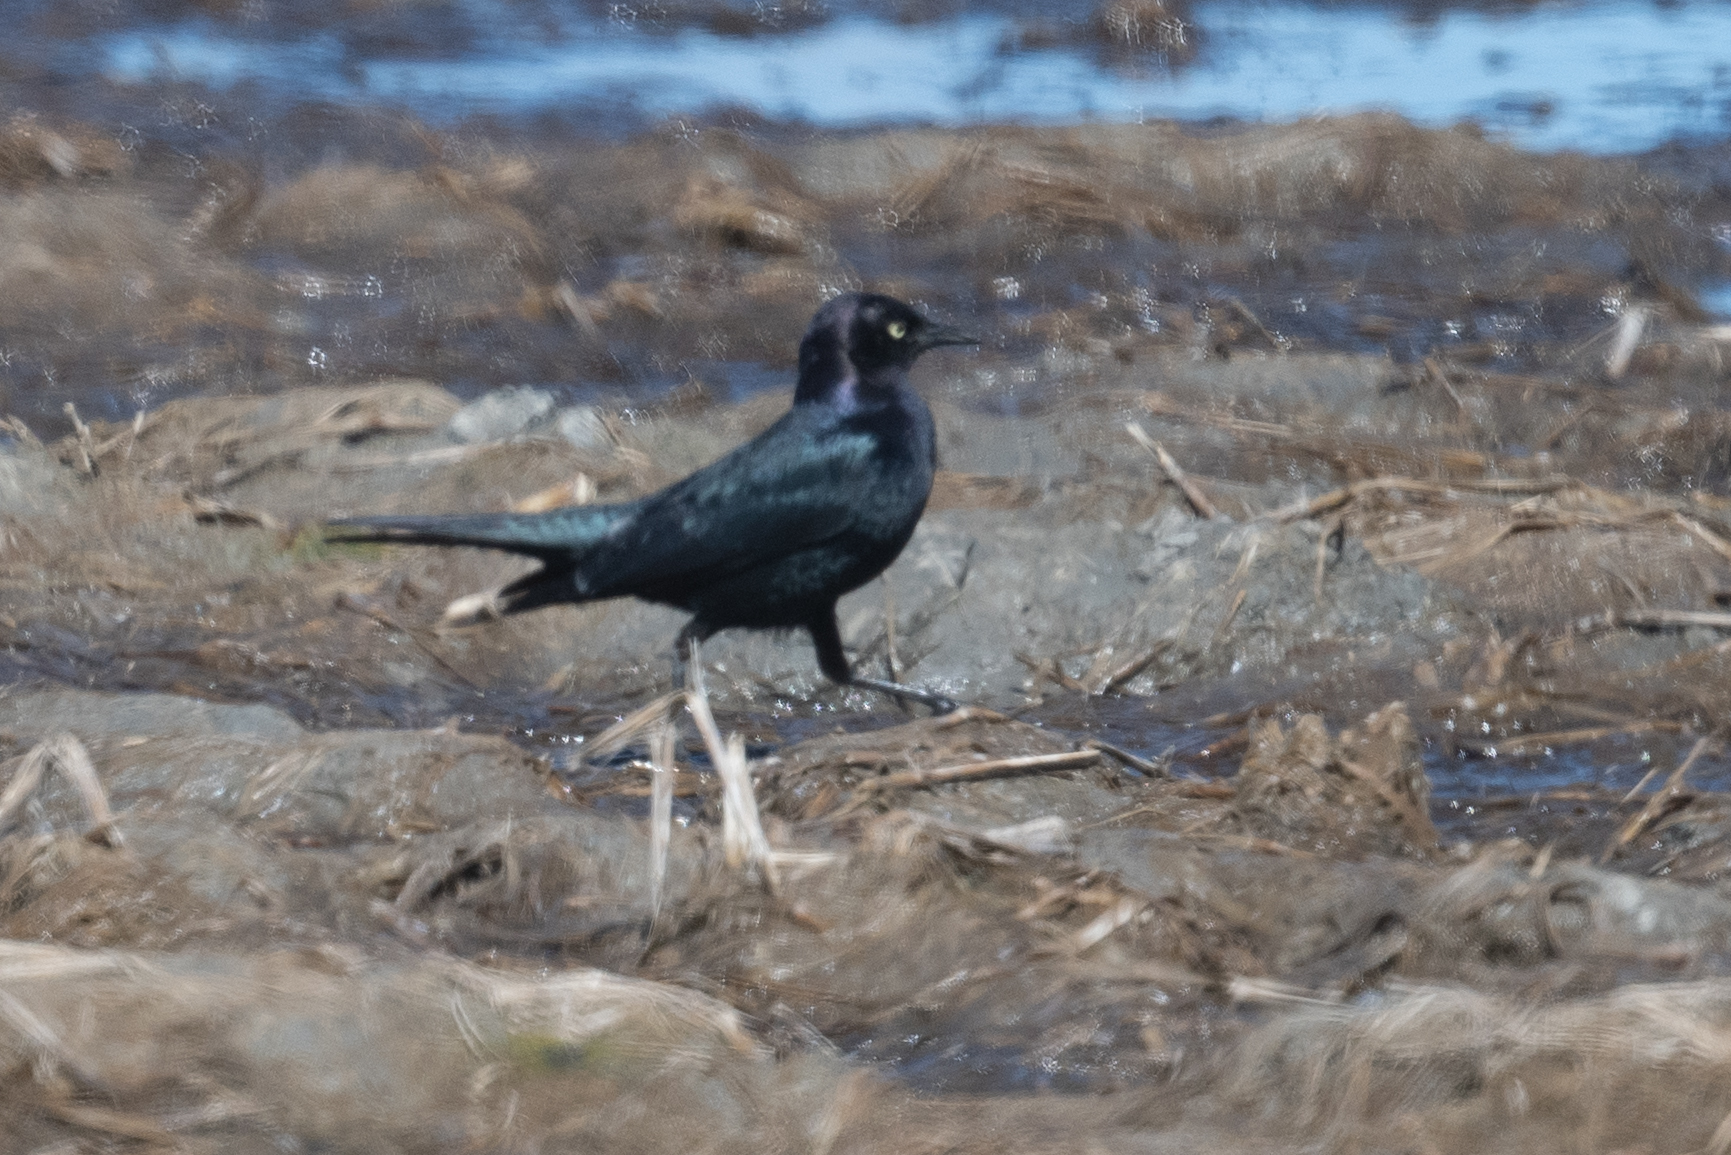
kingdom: Animalia
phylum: Chordata
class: Aves
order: Passeriformes
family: Icteridae
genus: Euphagus
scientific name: Euphagus cyanocephalus
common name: Brewer's blackbird
